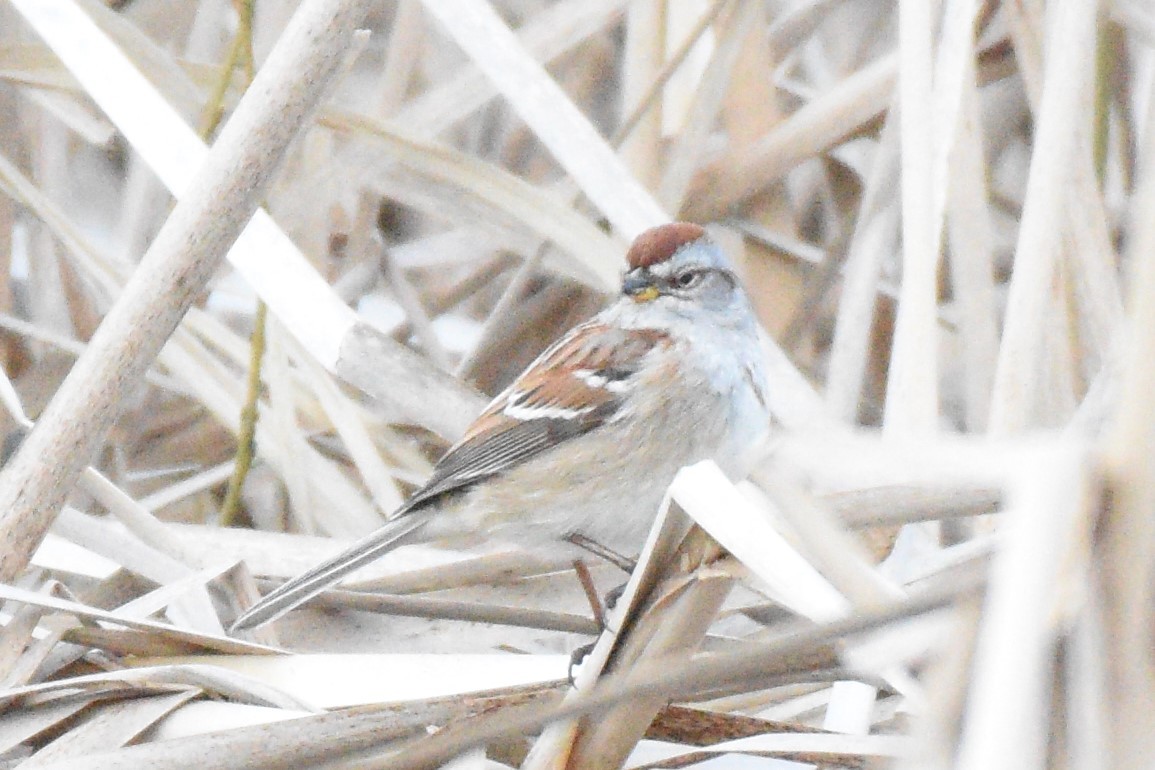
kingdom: Animalia
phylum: Chordata
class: Aves
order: Passeriformes
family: Passerellidae
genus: Spizelloides
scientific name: Spizelloides arborea
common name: American tree sparrow
